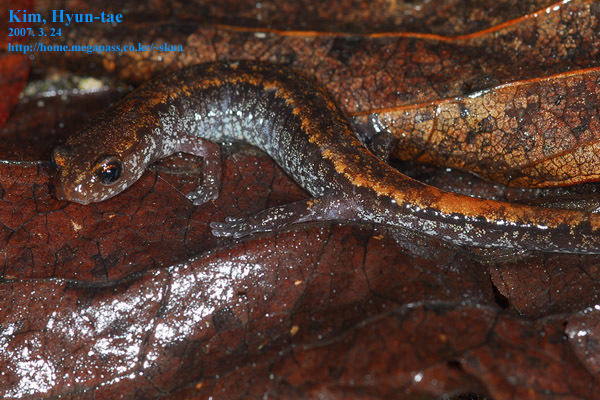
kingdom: Animalia
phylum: Chordata
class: Amphibia
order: Caudata
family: Plethodontidae
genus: Karsenia
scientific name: Karsenia koreana
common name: Korean crevice salamander
